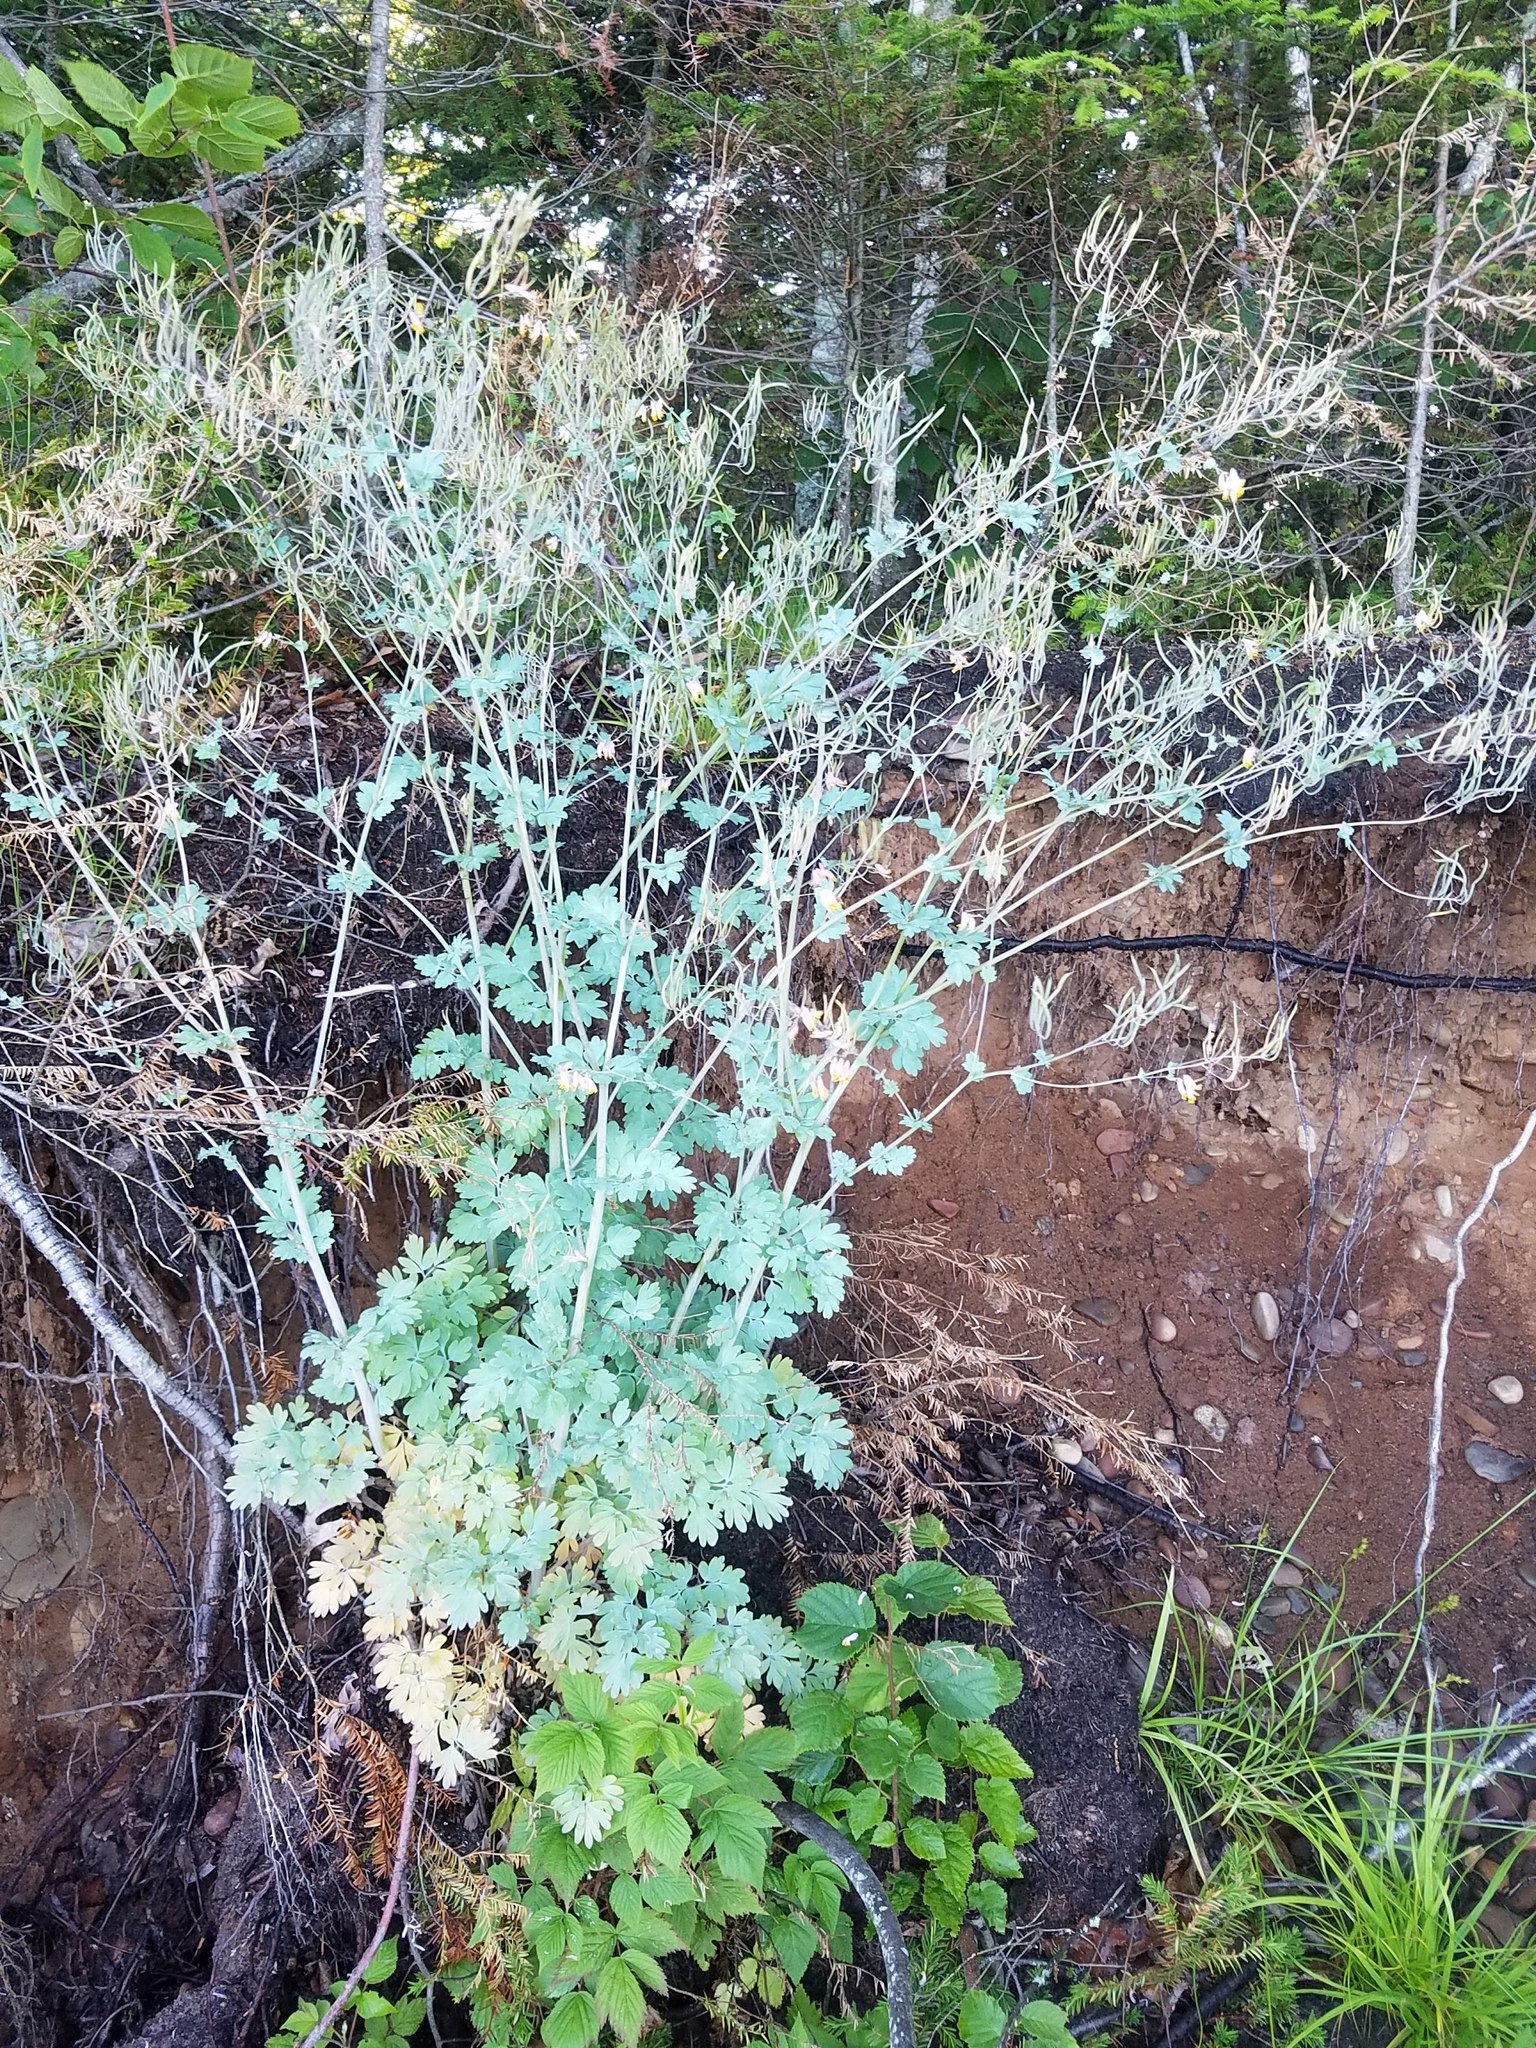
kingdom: Plantae
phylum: Tracheophyta
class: Magnoliopsida
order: Ranunculales
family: Papaveraceae
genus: Capnoides
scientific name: Capnoides sempervirens
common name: Rock harlequin
